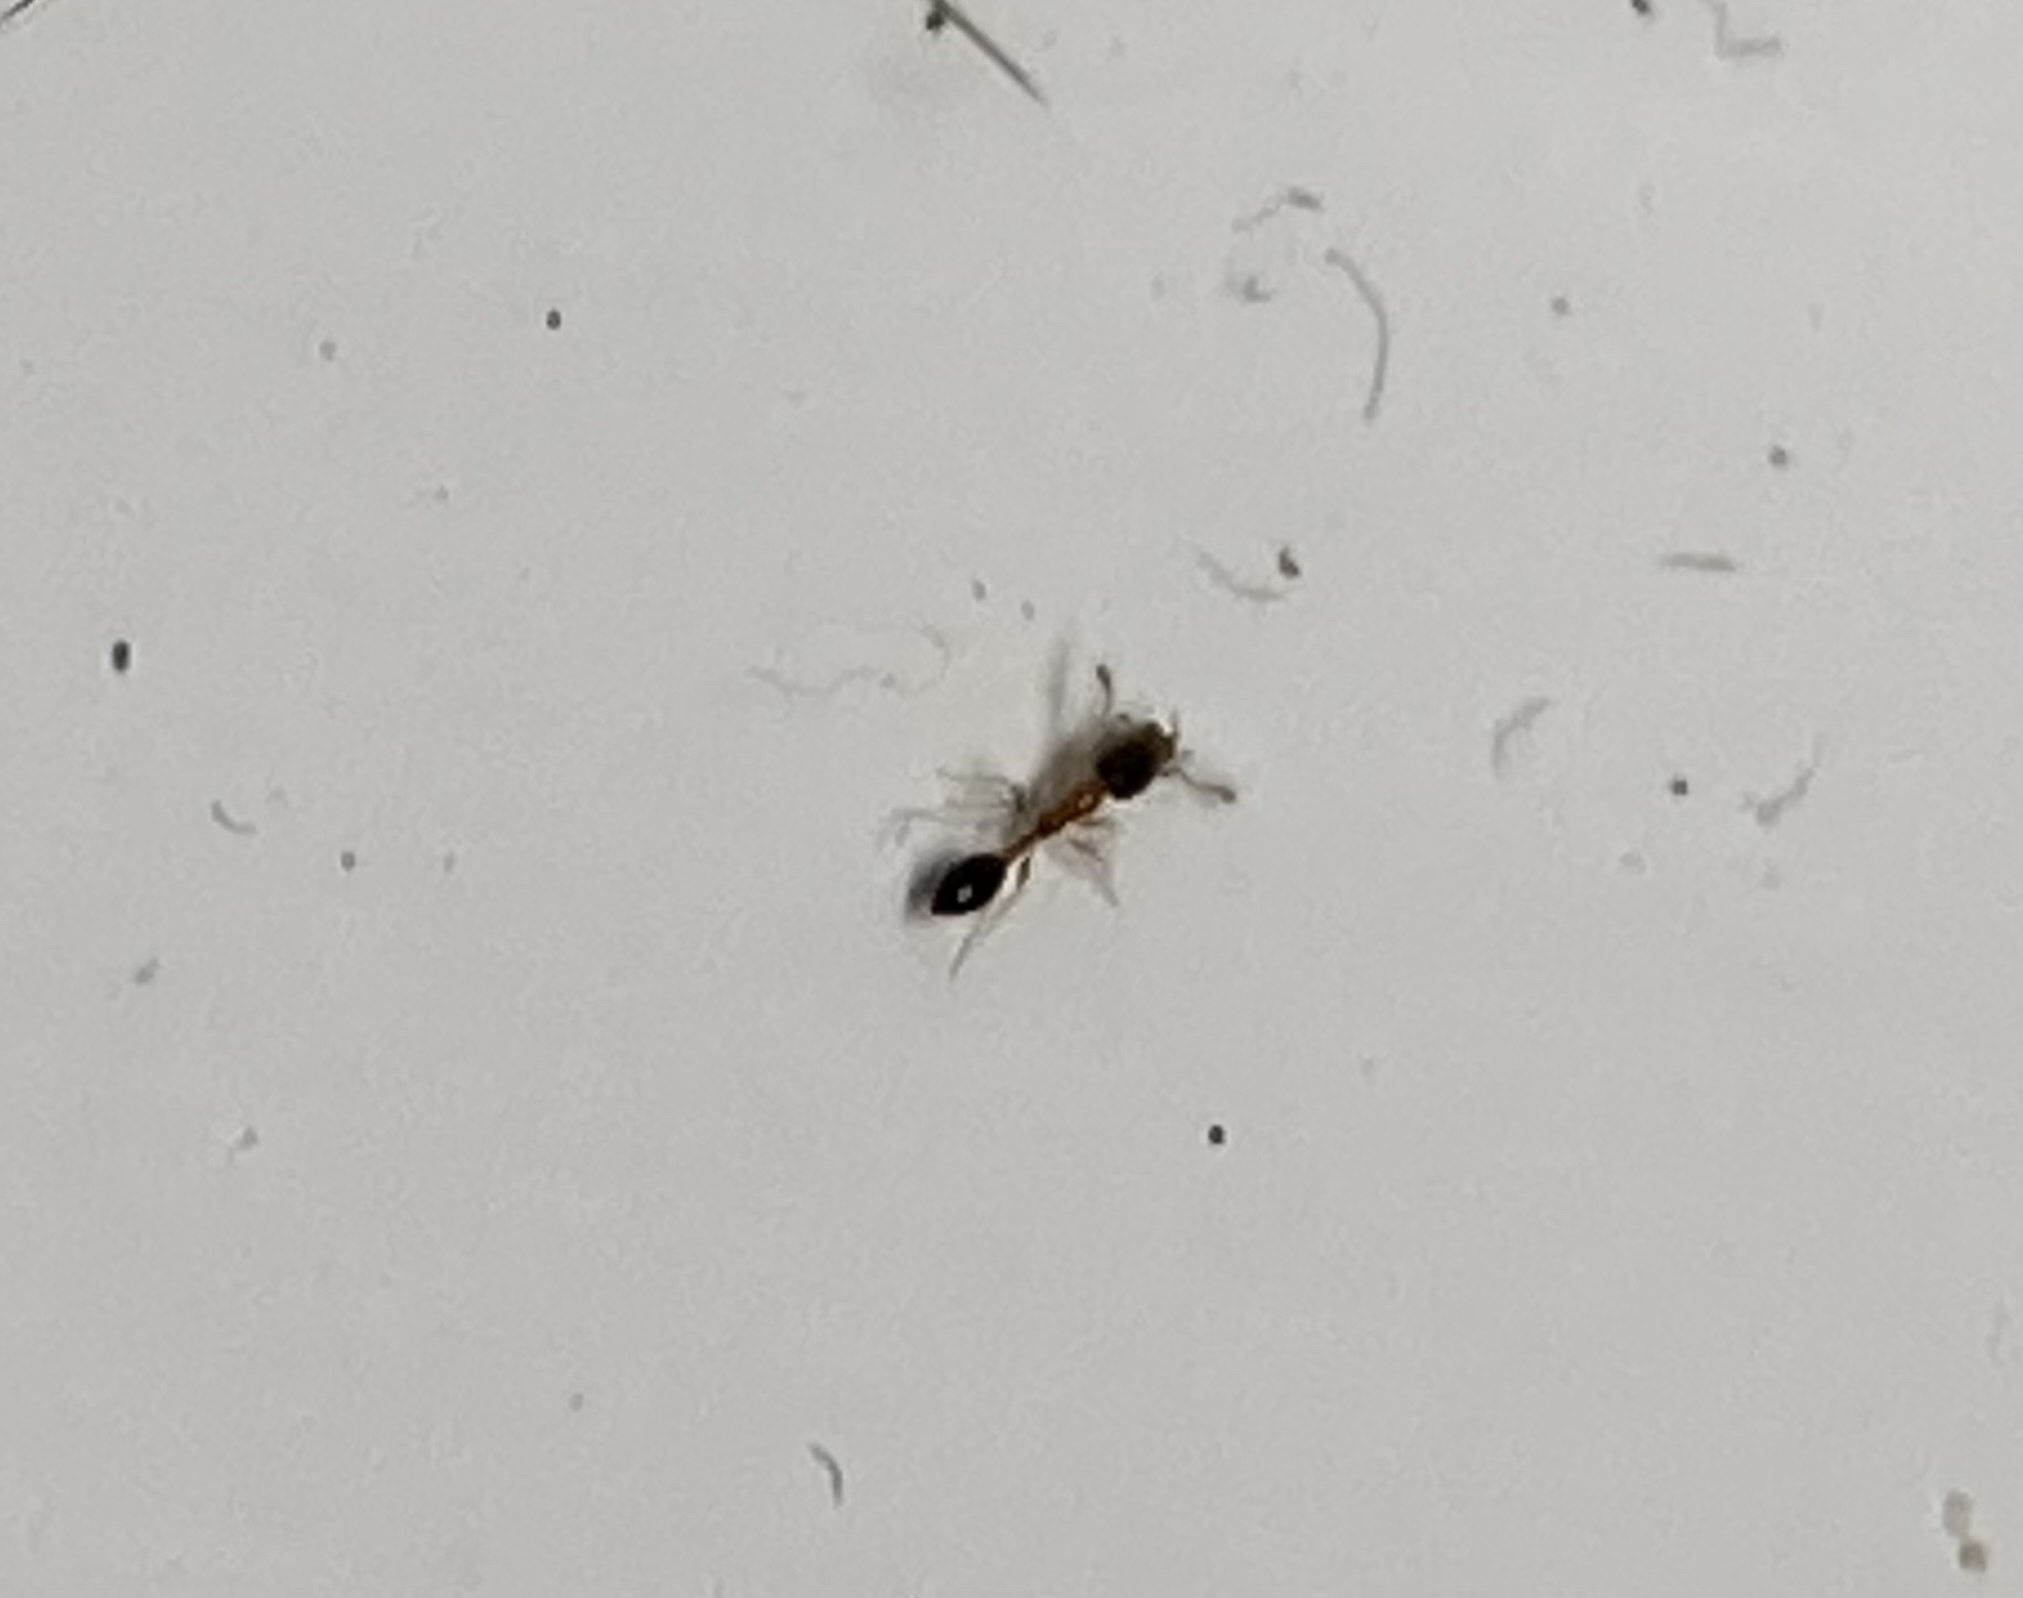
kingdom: Animalia
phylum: Arthropoda
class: Insecta
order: Hymenoptera
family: Formicidae
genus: Monomorium
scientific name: Monomorium floricola
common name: Bicolored trailing ant
